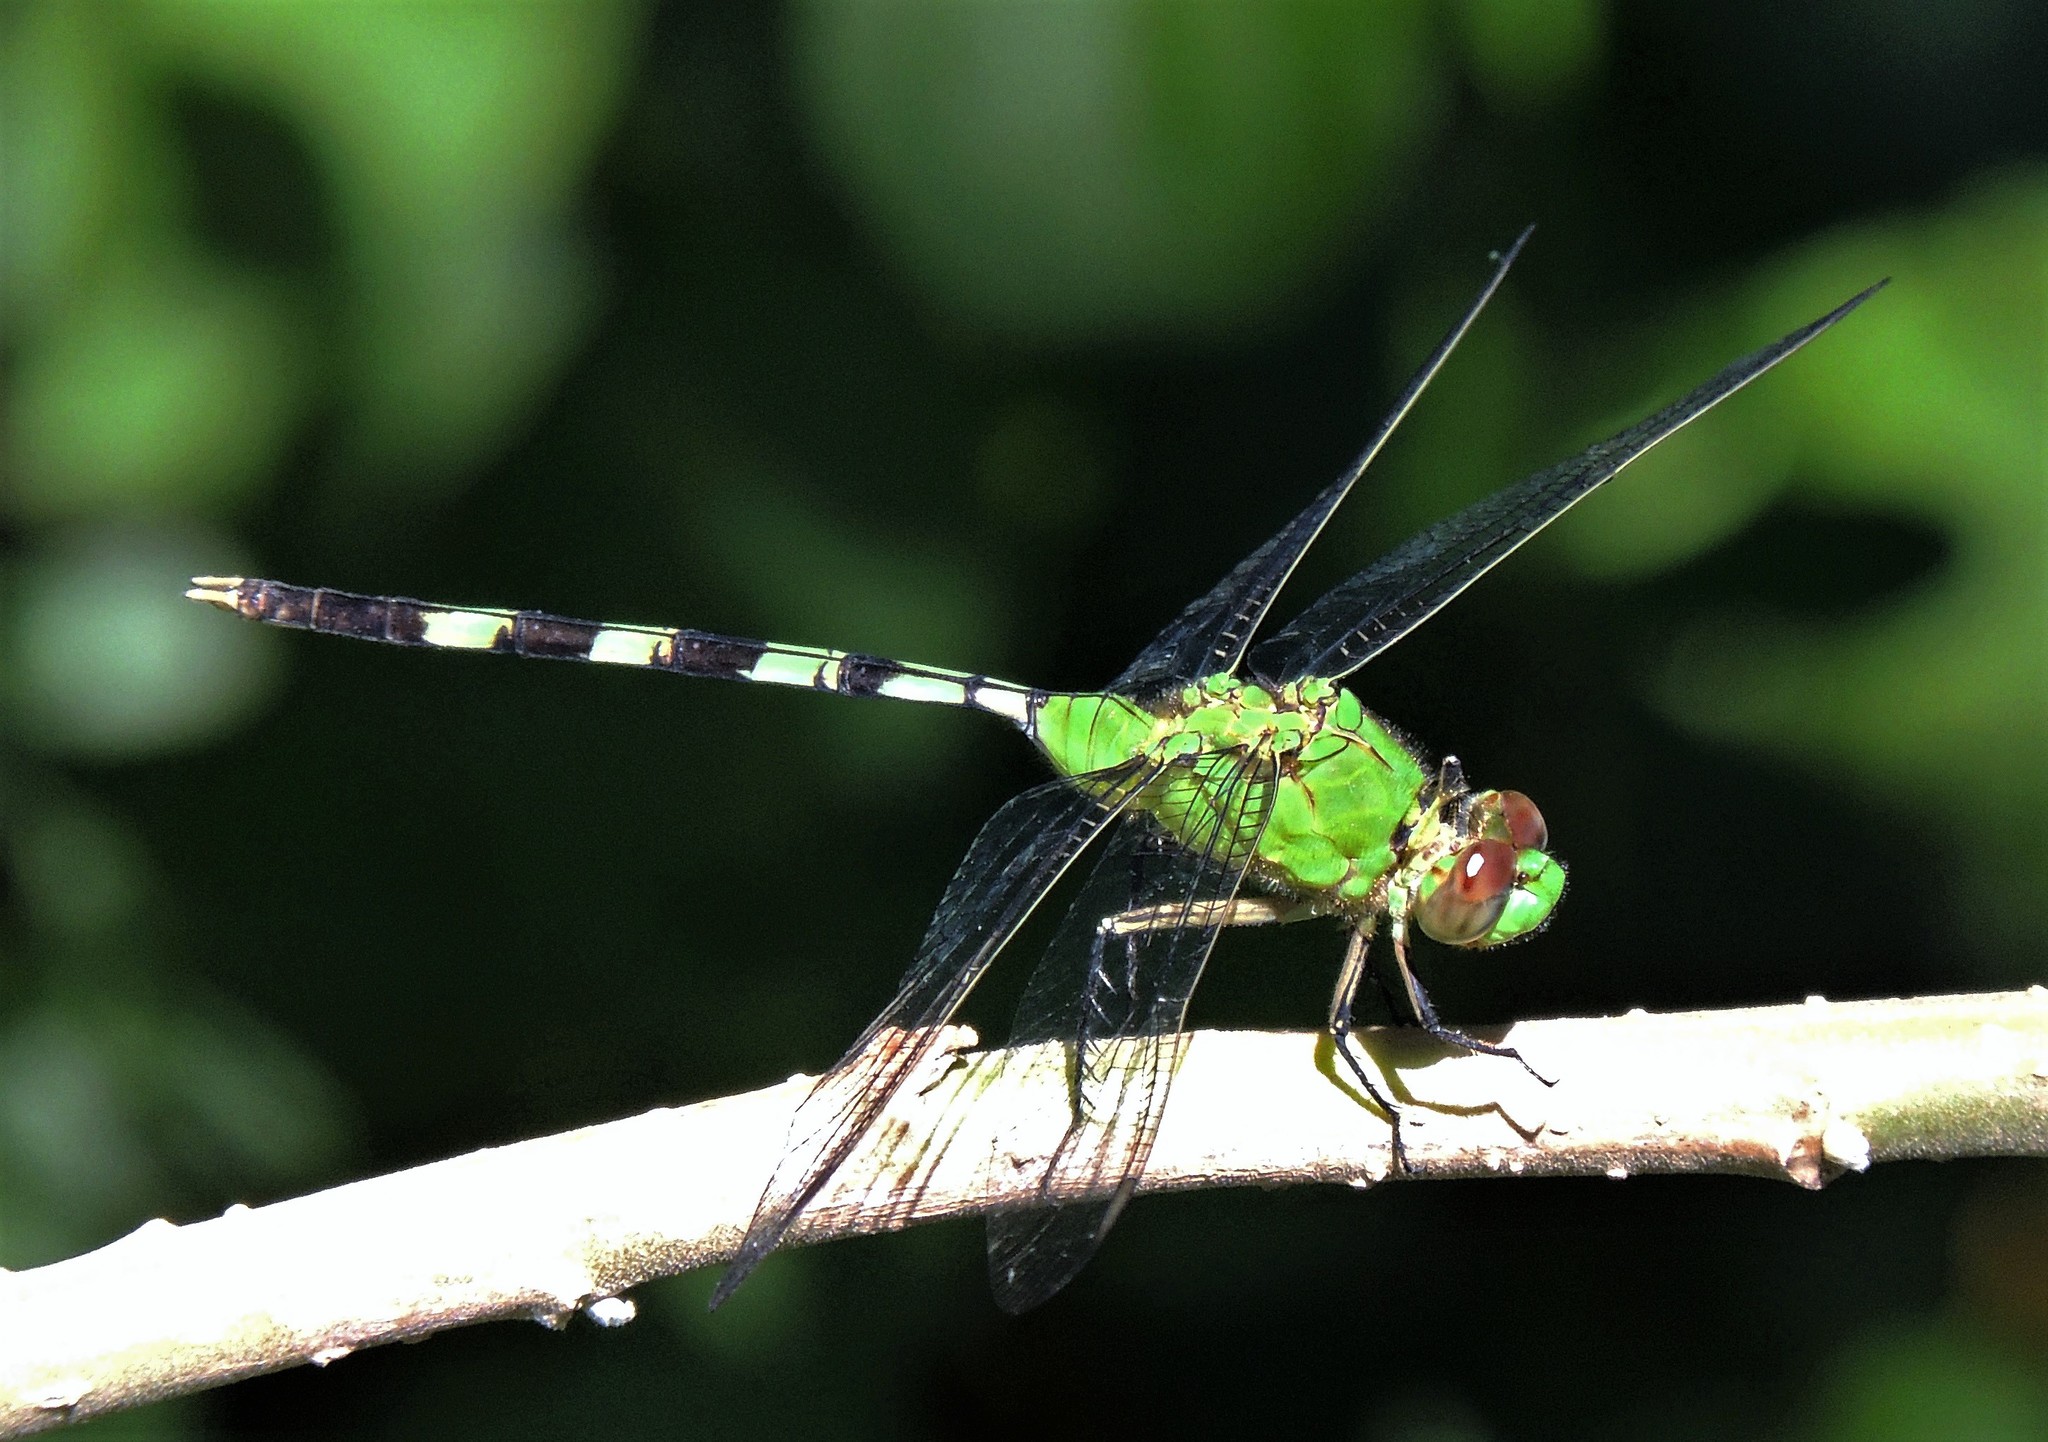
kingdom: Animalia
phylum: Arthropoda
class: Insecta
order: Odonata
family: Libellulidae
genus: Erythemis
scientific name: Erythemis vesiculosa
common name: Great pondhawk
